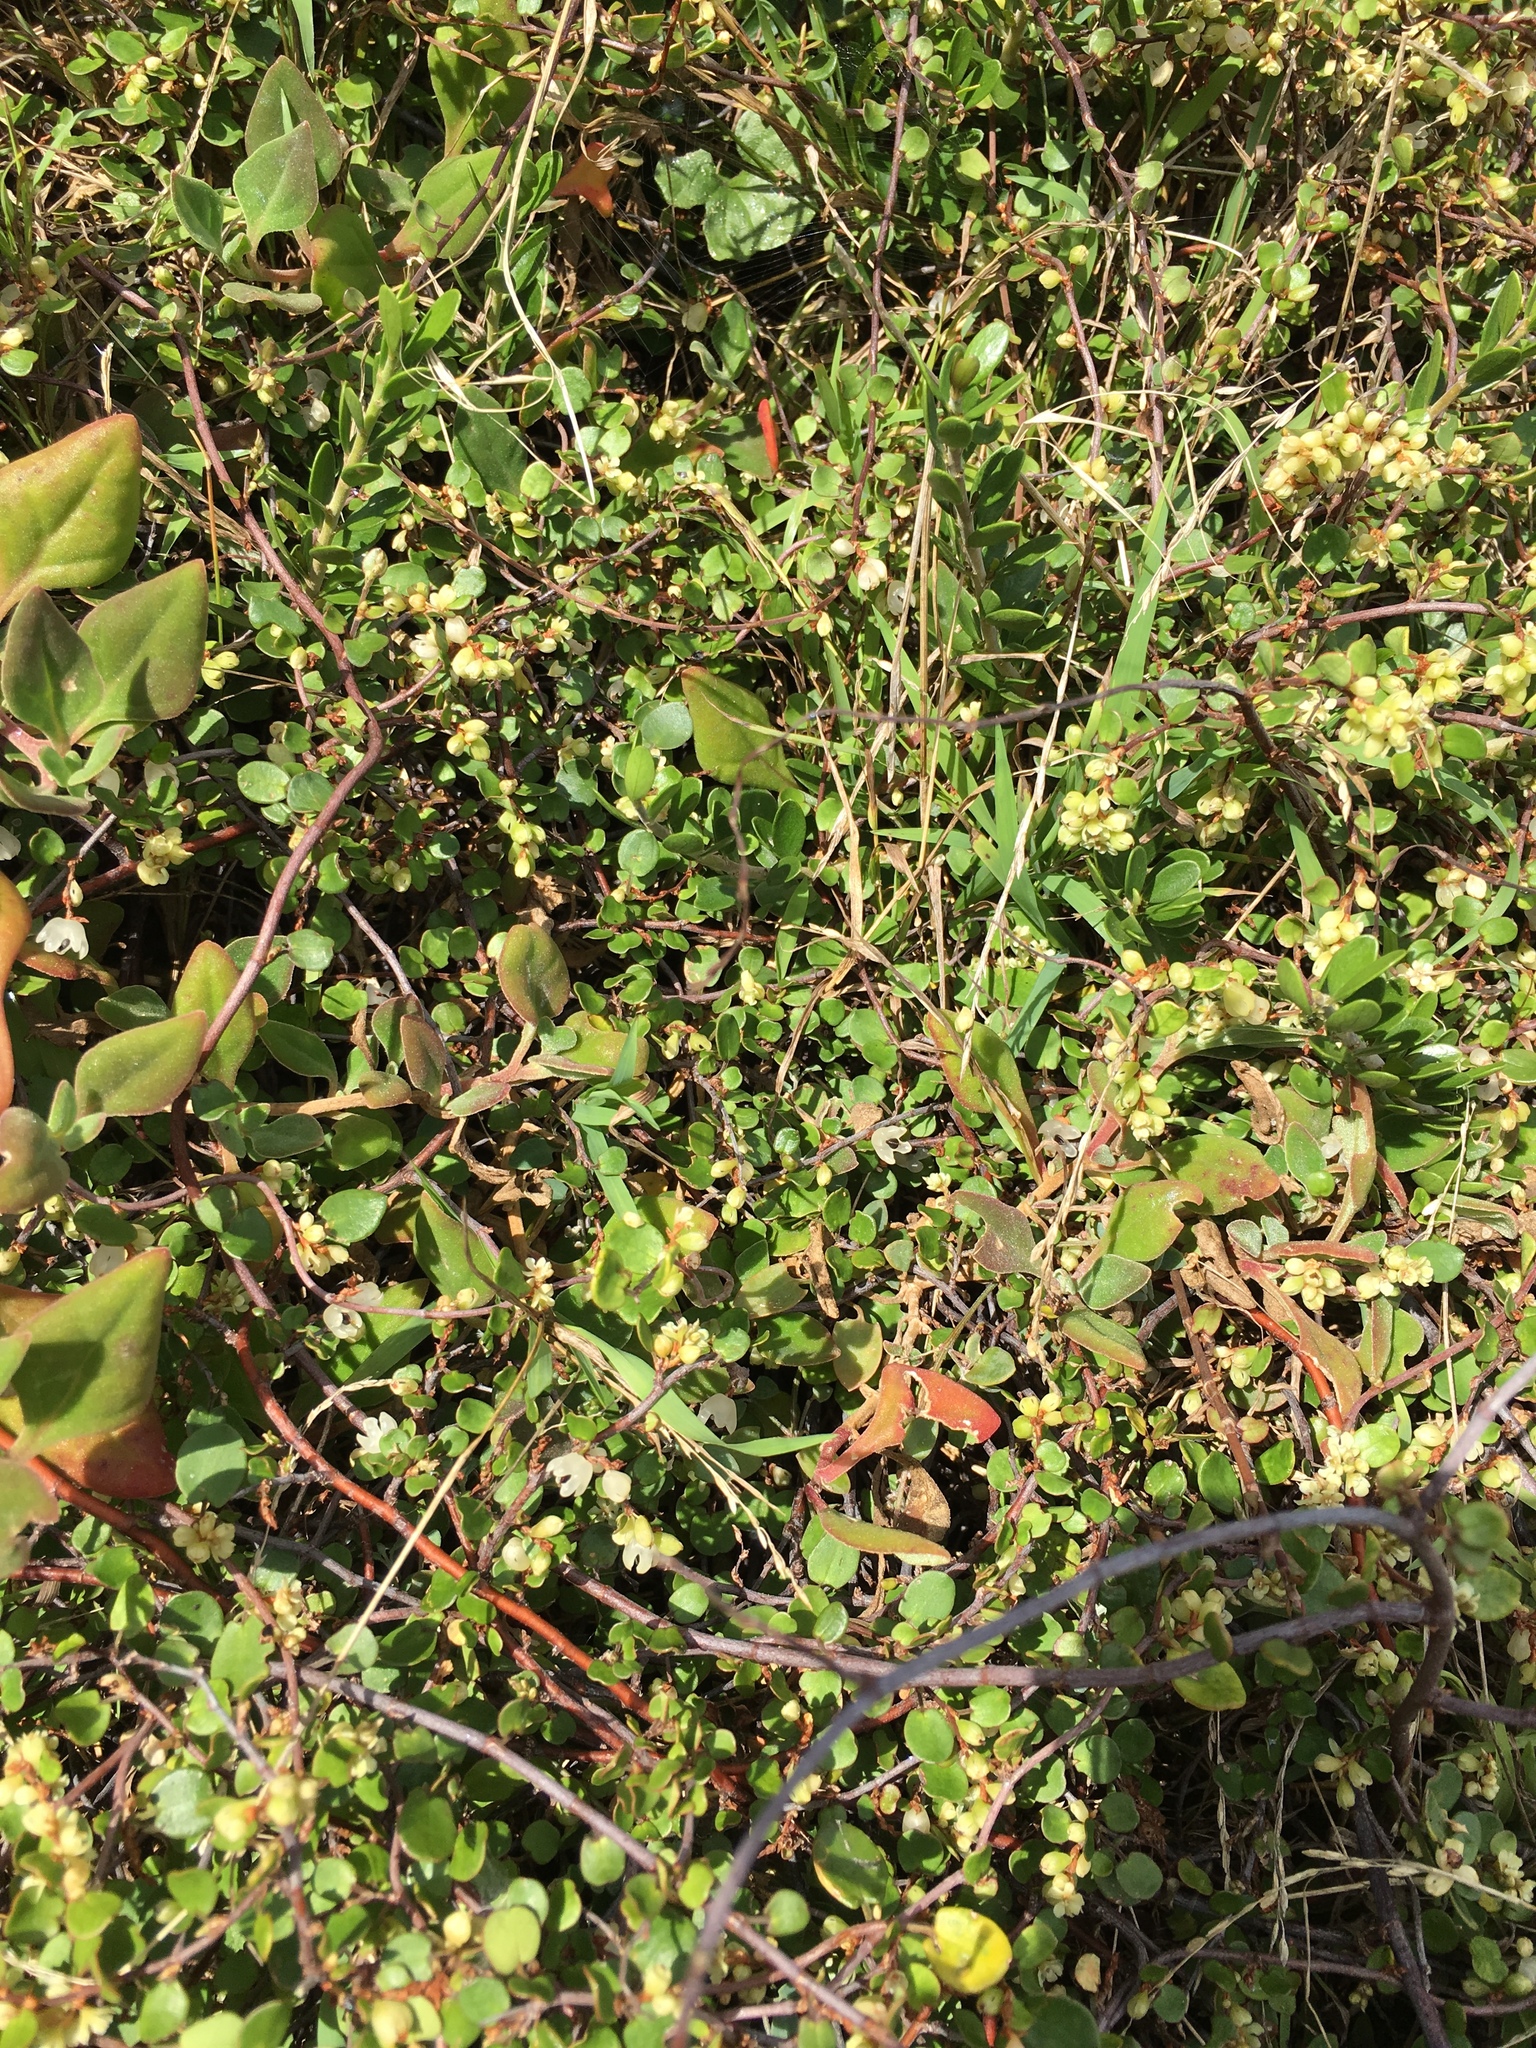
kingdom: Plantae
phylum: Tracheophyta
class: Magnoliopsida
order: Caryophyllales
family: Polygonaceae
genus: Muehlenbeckia
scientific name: Muehlenbeckia complexa
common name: Wireplant
